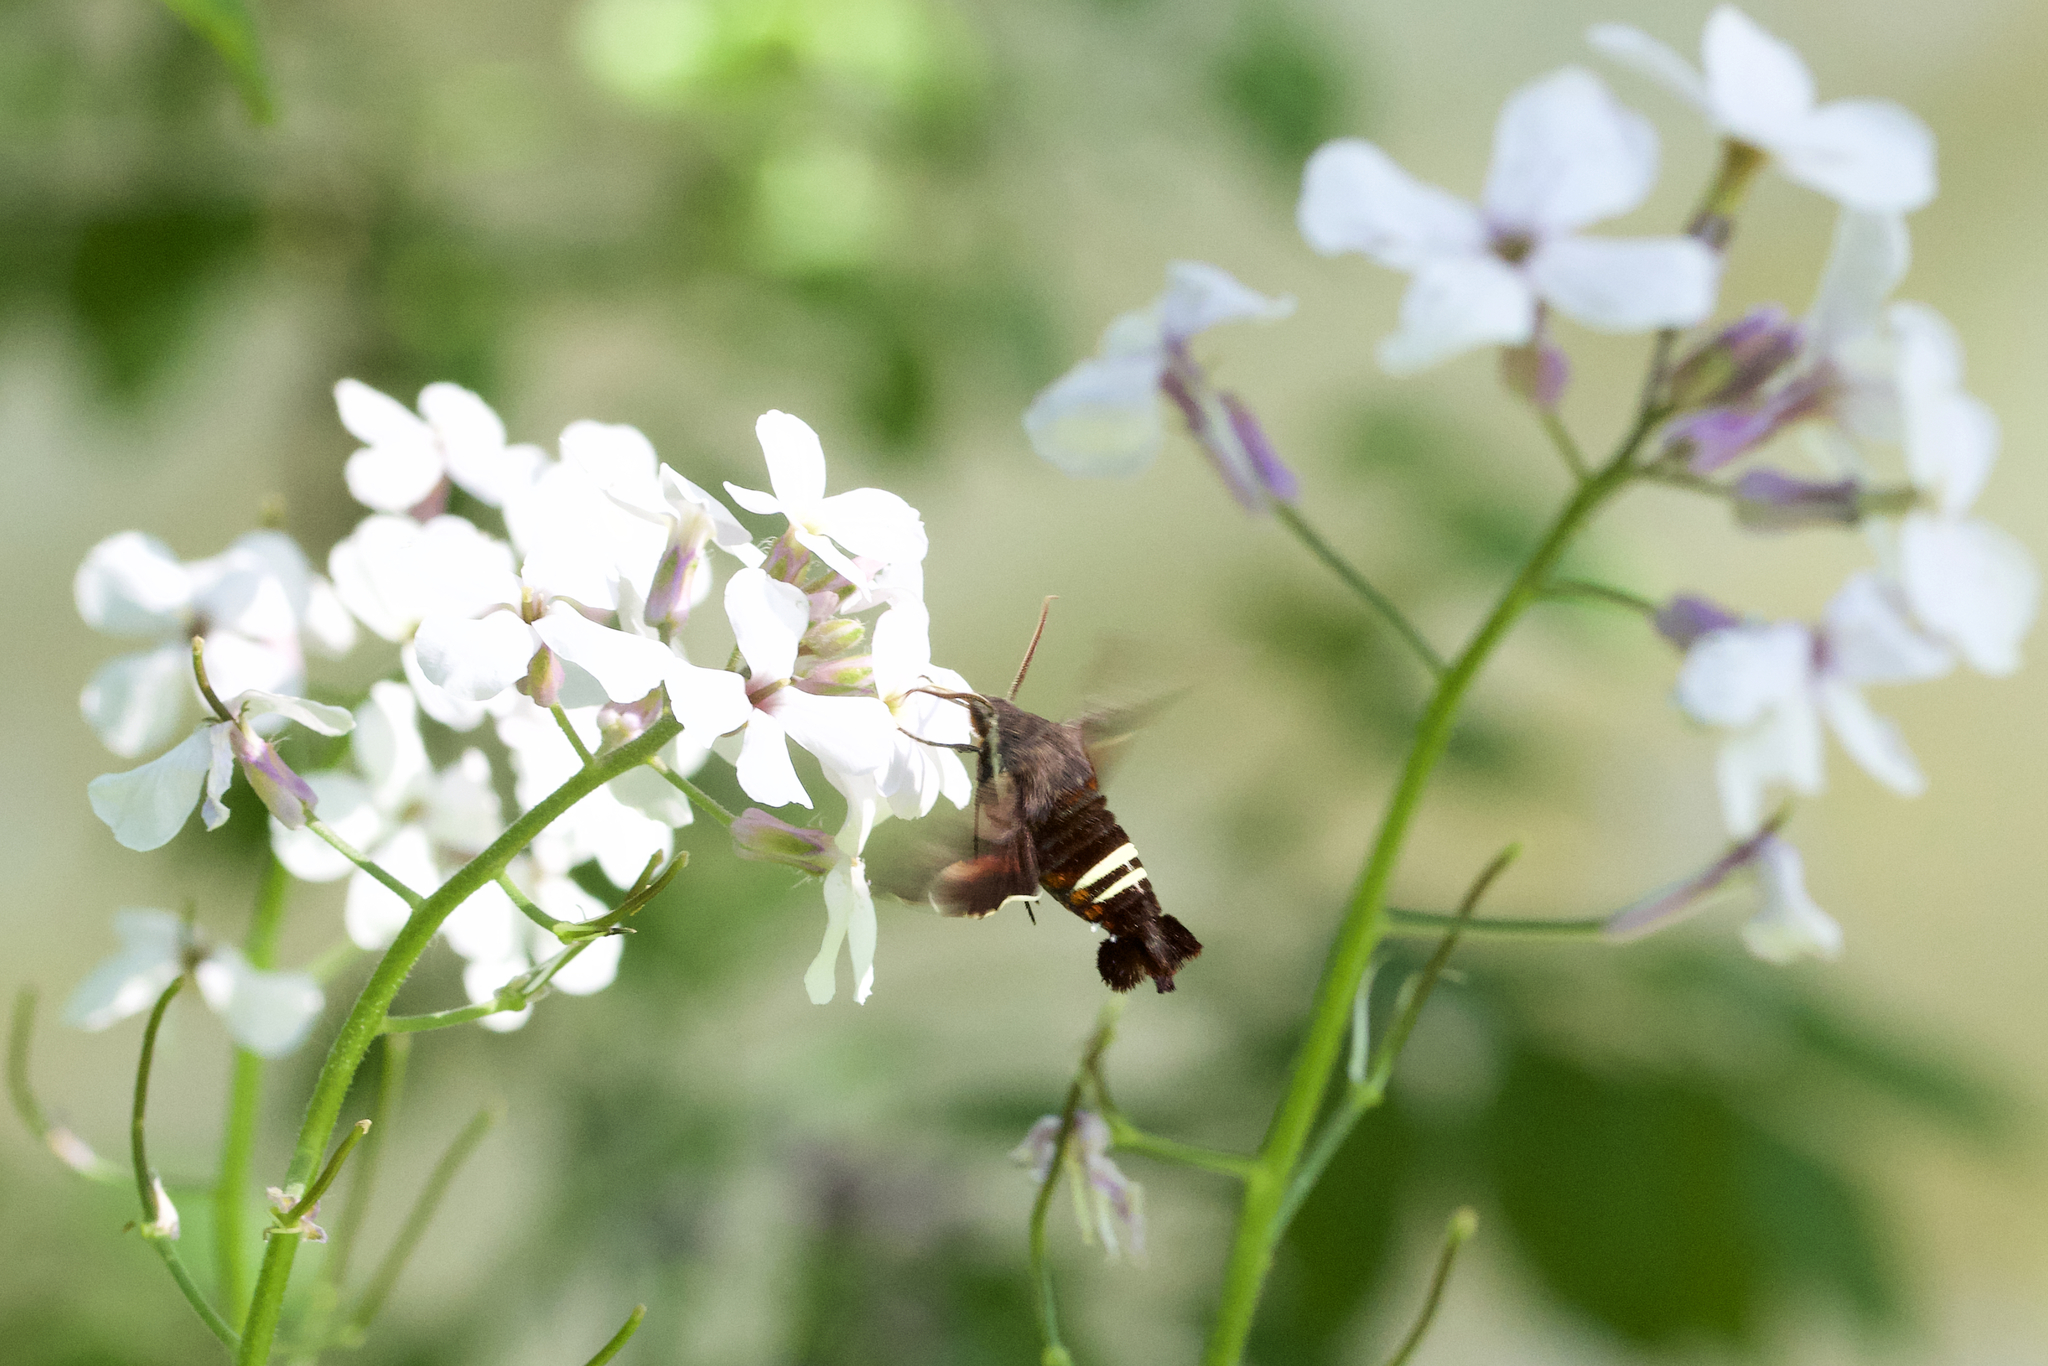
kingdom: Animalia
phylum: Arthropoda
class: Insecta
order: Lepidoptera
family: Sphingidae
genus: Amphion
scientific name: Amphion floridensis
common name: Nessus sphinx
